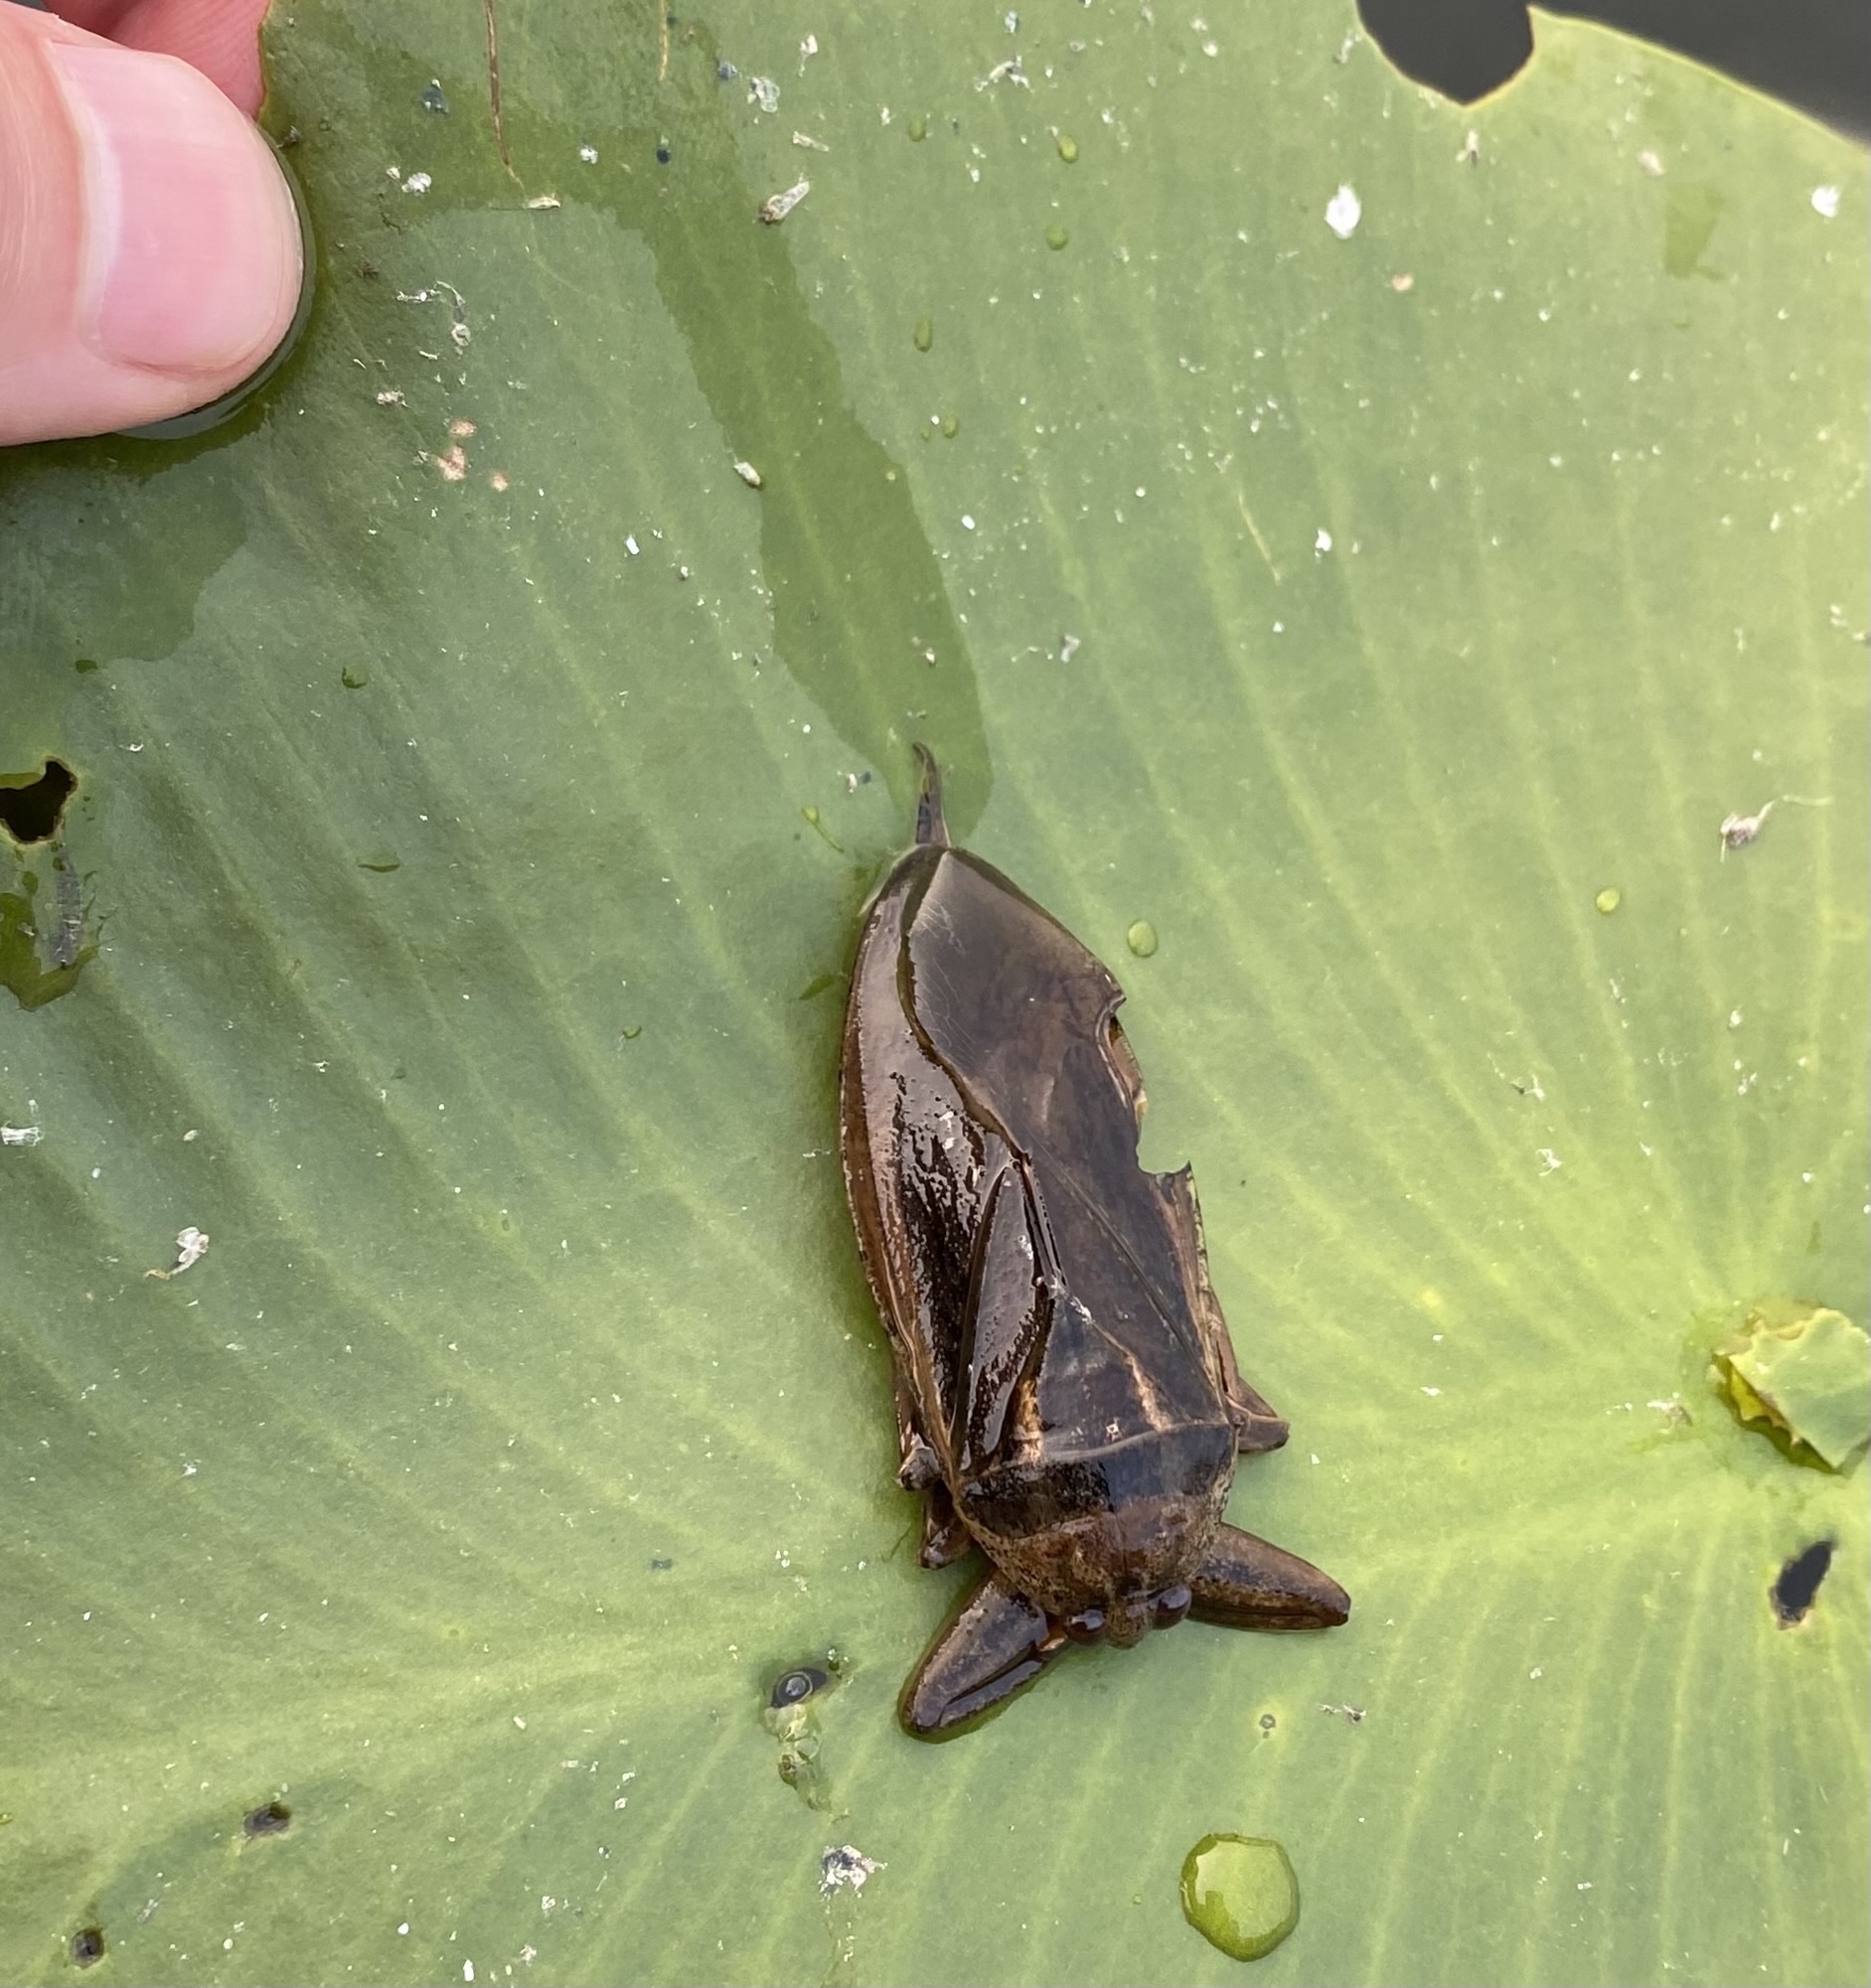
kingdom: Animalia
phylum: Arthropoda
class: Insecta
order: Hemiptera
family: Belostomatidae
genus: Lethocerus
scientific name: Lethocerus americanus
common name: Giant water bug
